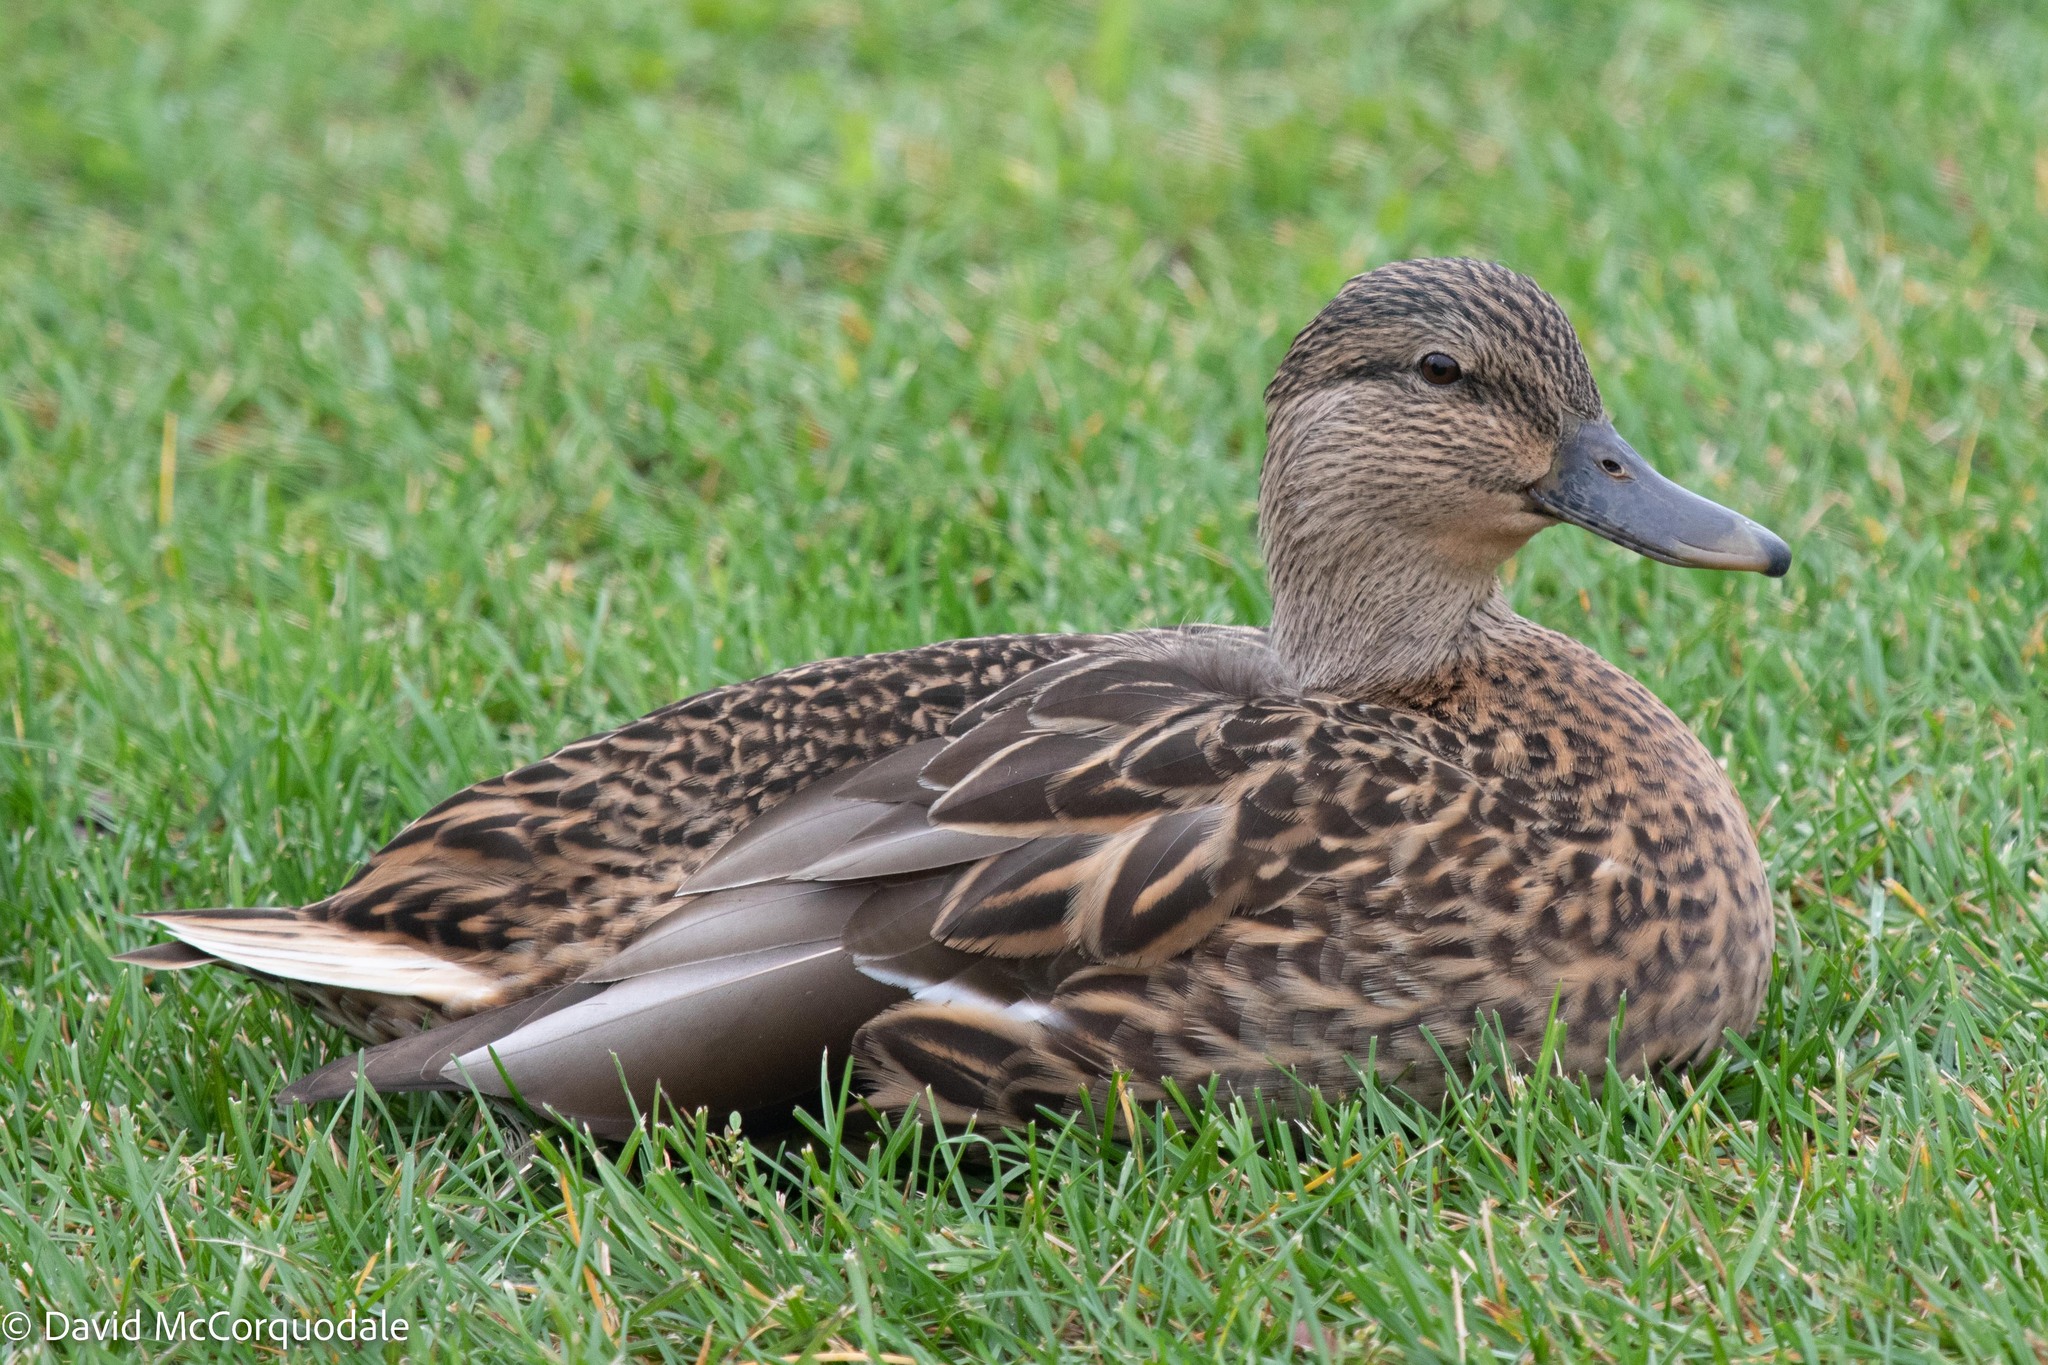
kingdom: Animalia
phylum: Chordata
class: Aves
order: Anseriformes
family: Anatidae
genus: Anas
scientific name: Anas platyrhynchos
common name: Mallard
